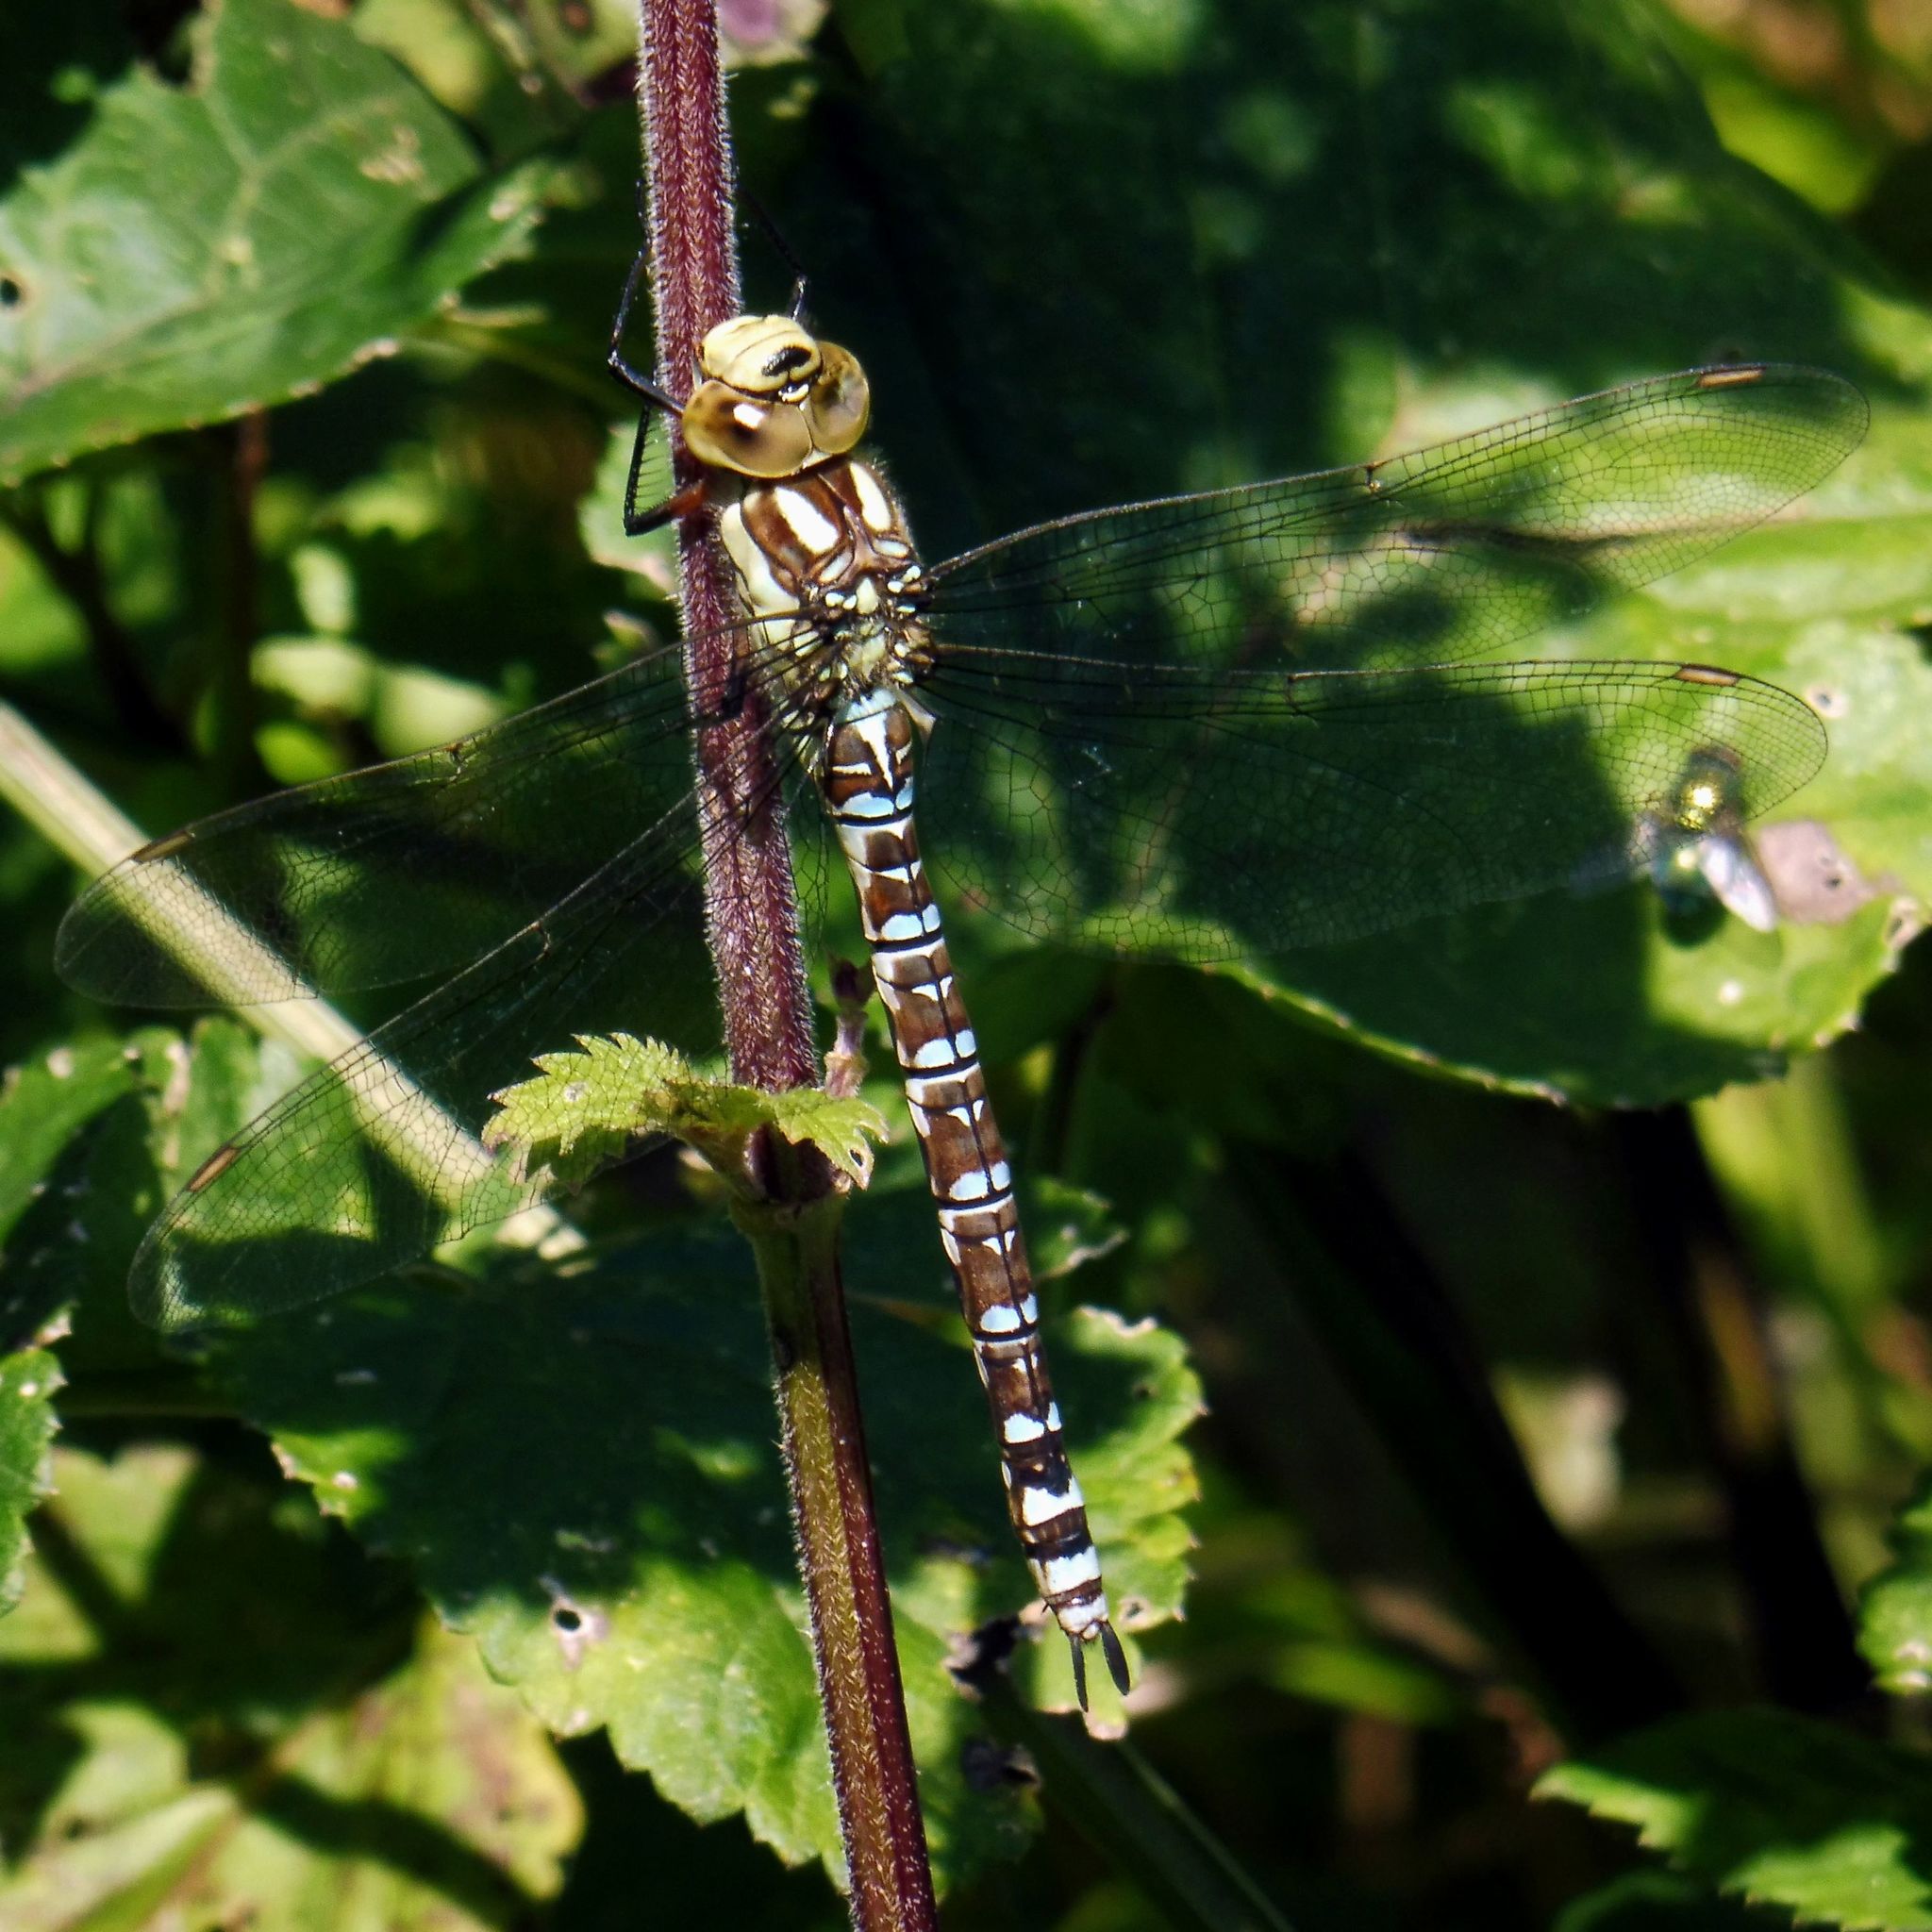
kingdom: Animalia
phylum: Arthropoda
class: Insecta
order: Odonata
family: Aeshnidae
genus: Aeshna
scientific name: Aeshna cyanea
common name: Southern hawker
